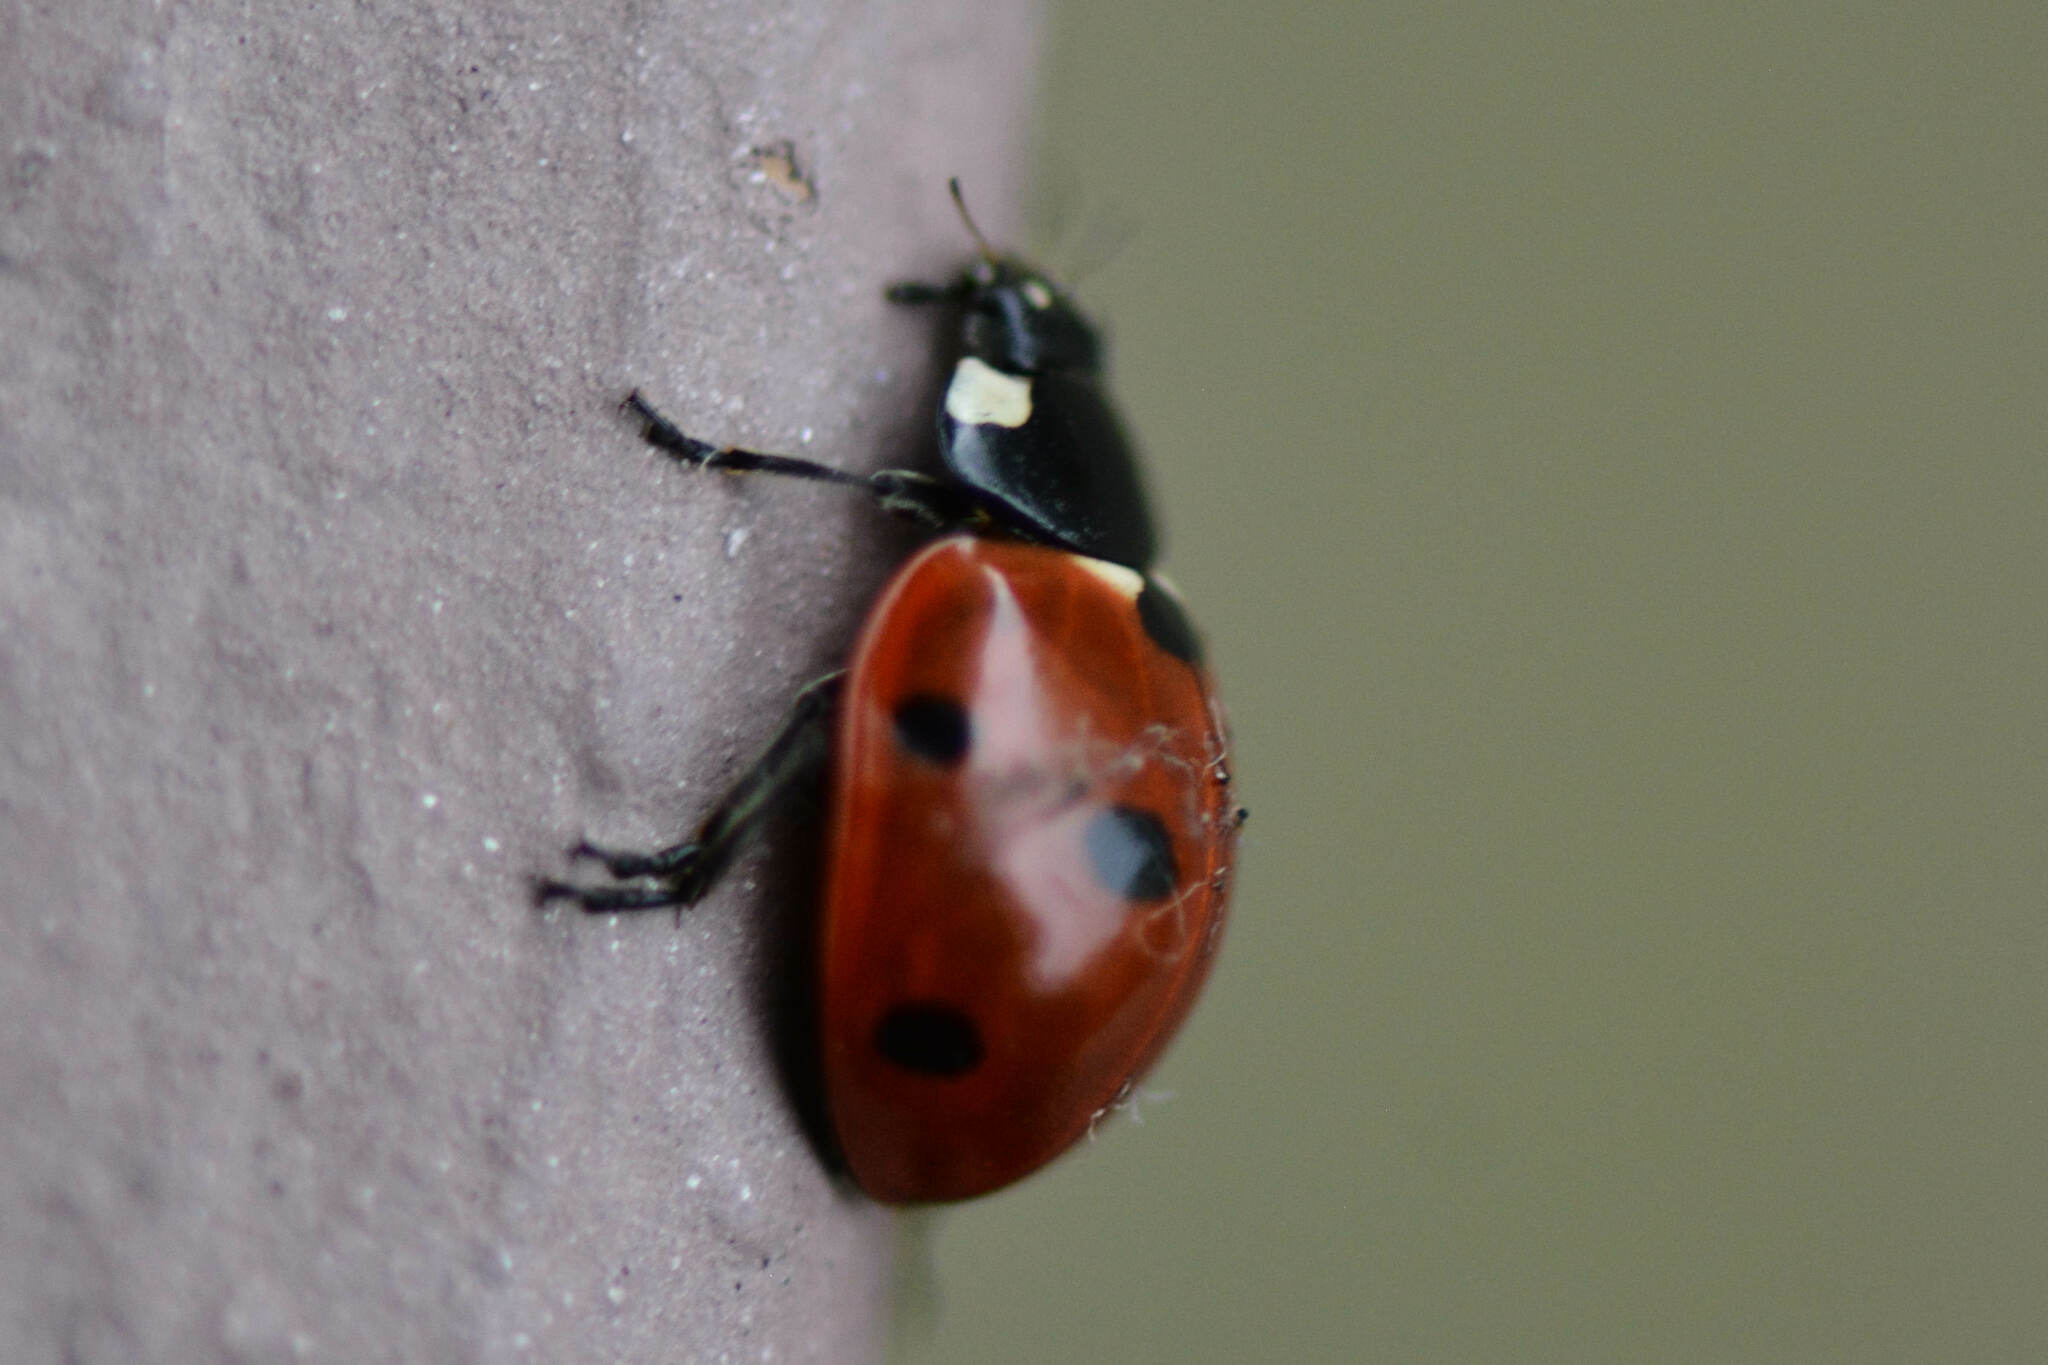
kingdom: Animalia
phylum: Arthropoda
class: Insecta
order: Coleoptera
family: Coccinellidae
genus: Coccinella
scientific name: Coccinella septempunctata
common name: Sevenspotted lady beetle
